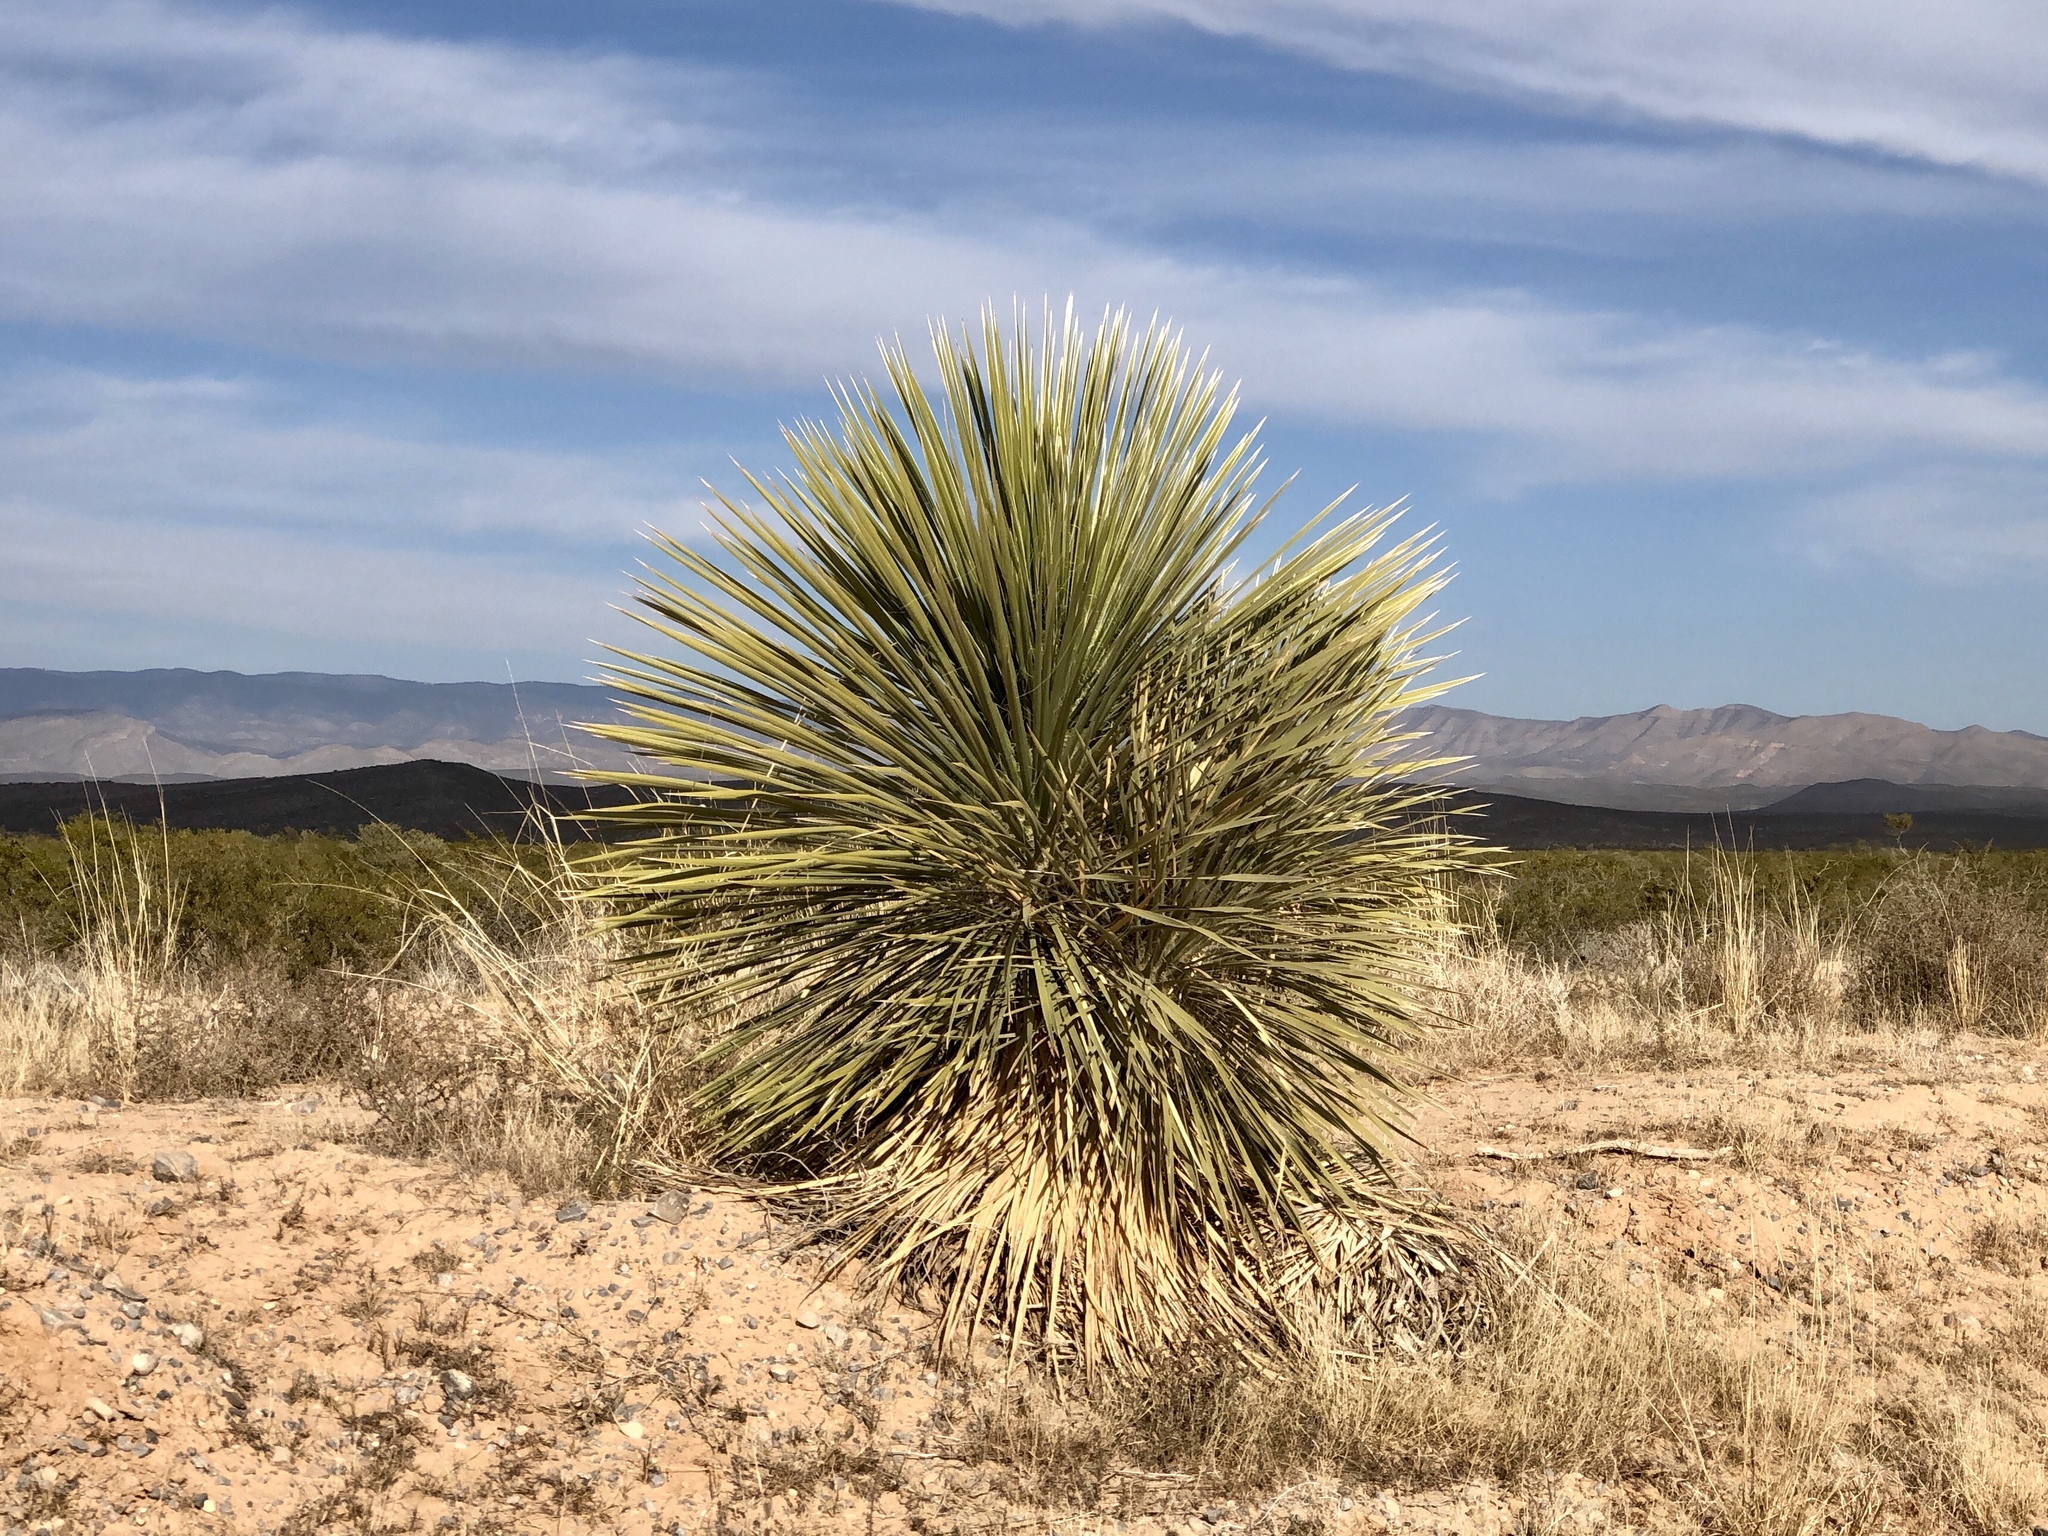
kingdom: Plantae
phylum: Tracheophyta
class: Liliopsida
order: Asparagales
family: Asparagaceae
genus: Yucca
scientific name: Yucca elata
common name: Palmella
